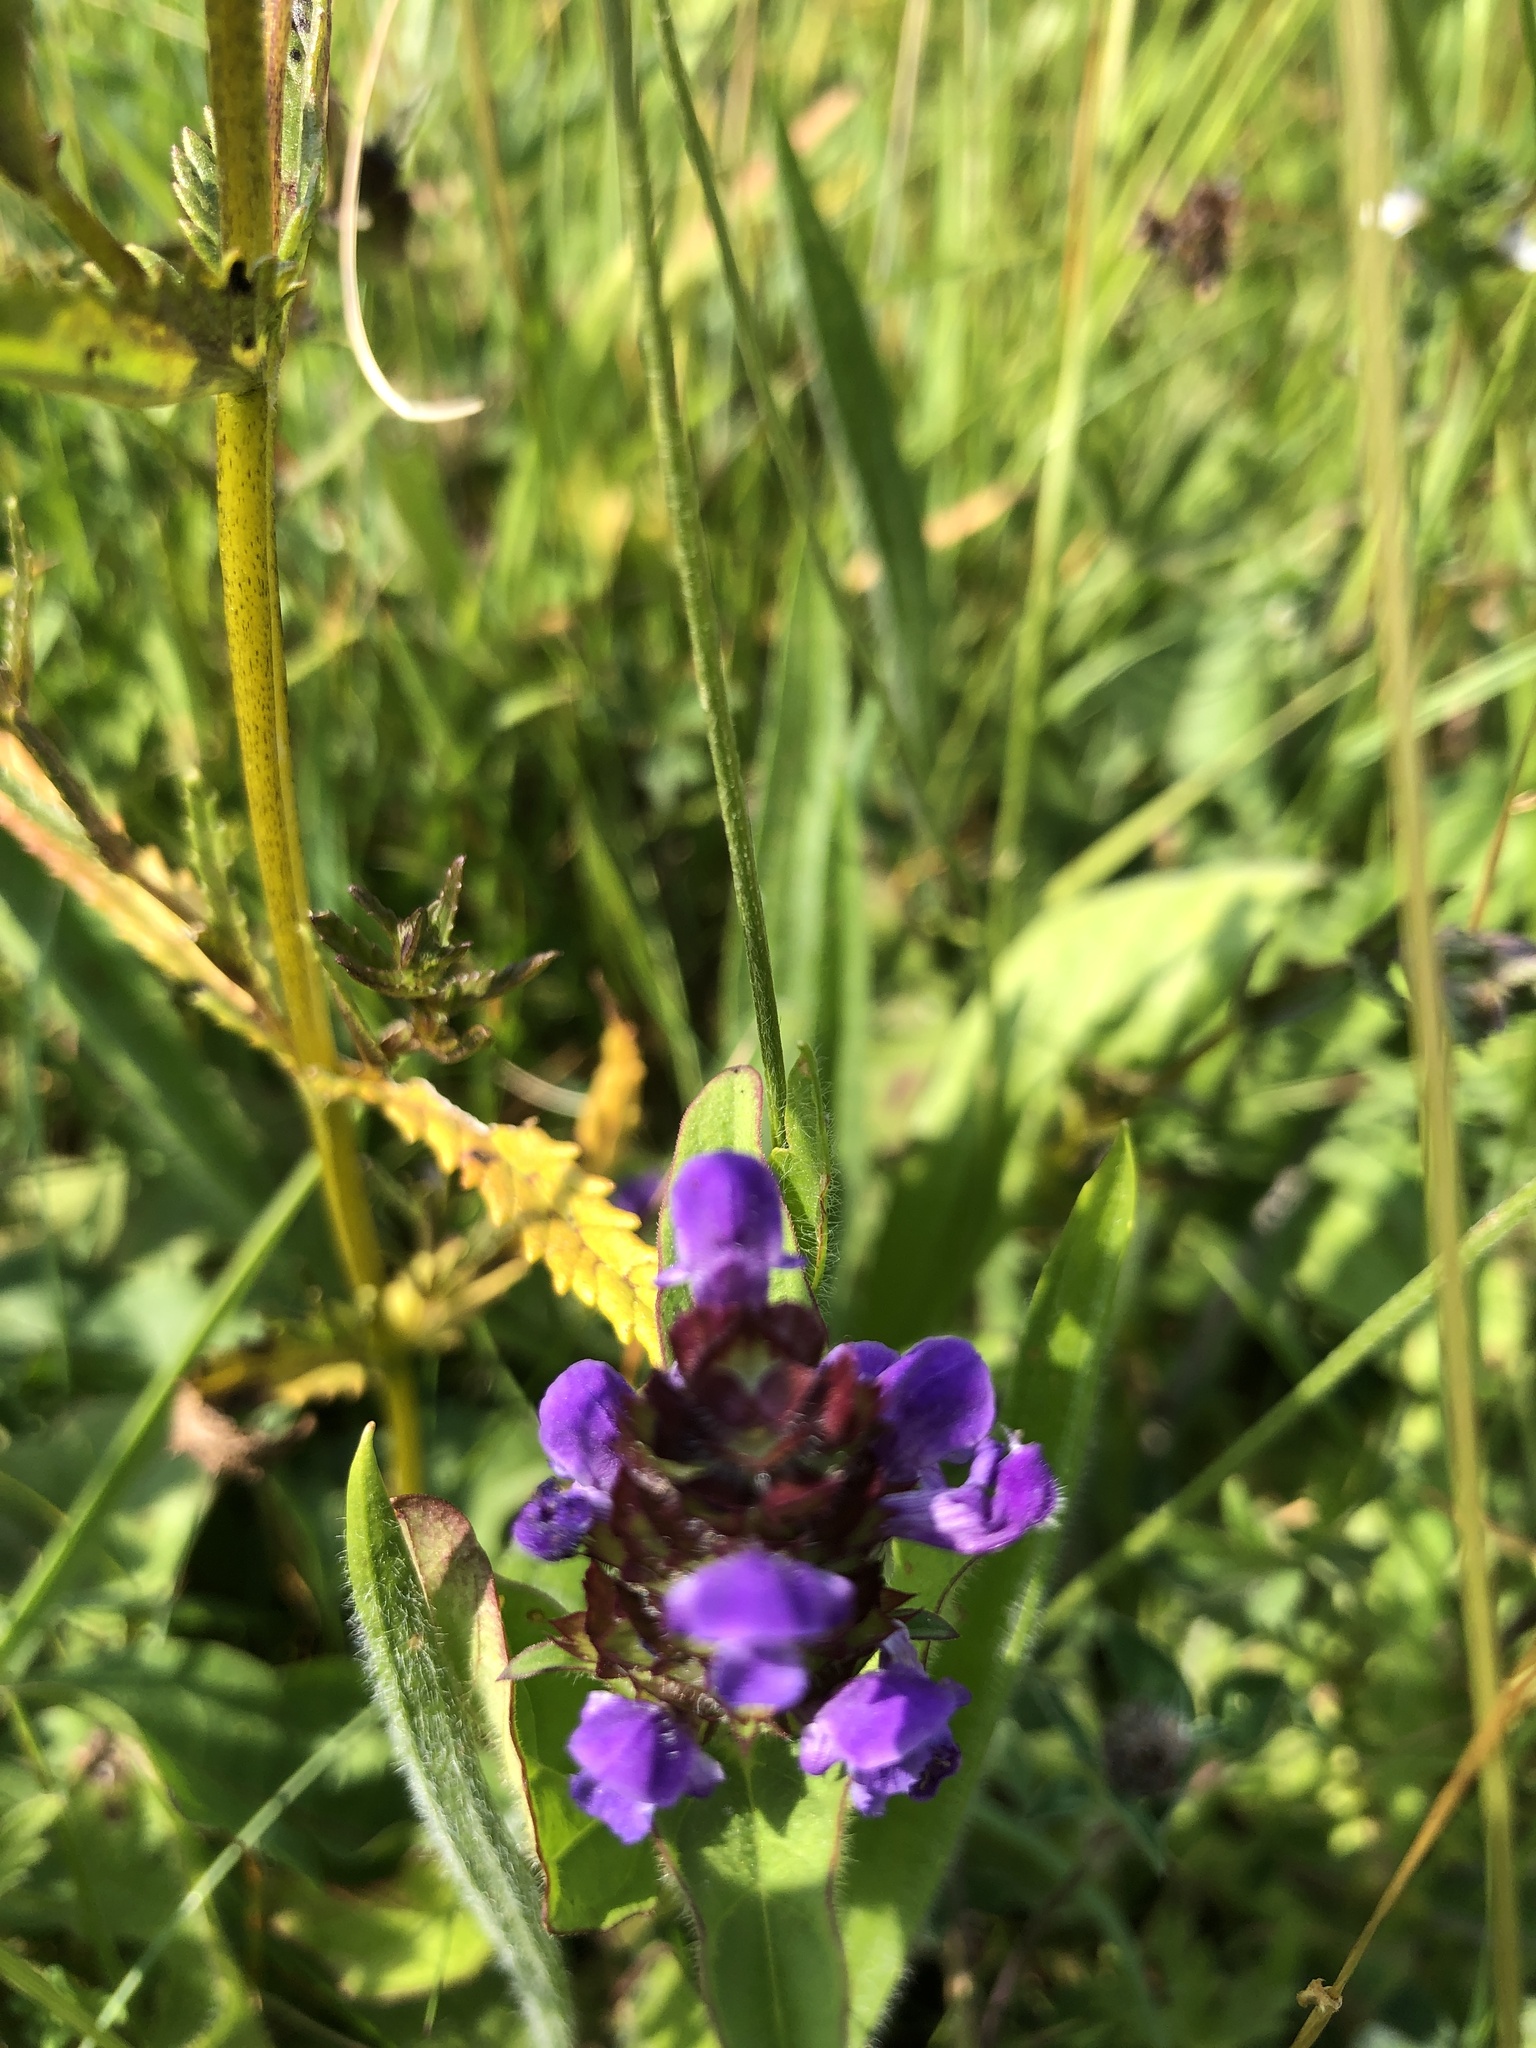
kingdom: Plantae
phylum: Tracheophyta
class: Magnoliopsida
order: Lamiales
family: Lamiaceae
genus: Prunella
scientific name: Prunella vulgaris
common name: Heal-all
